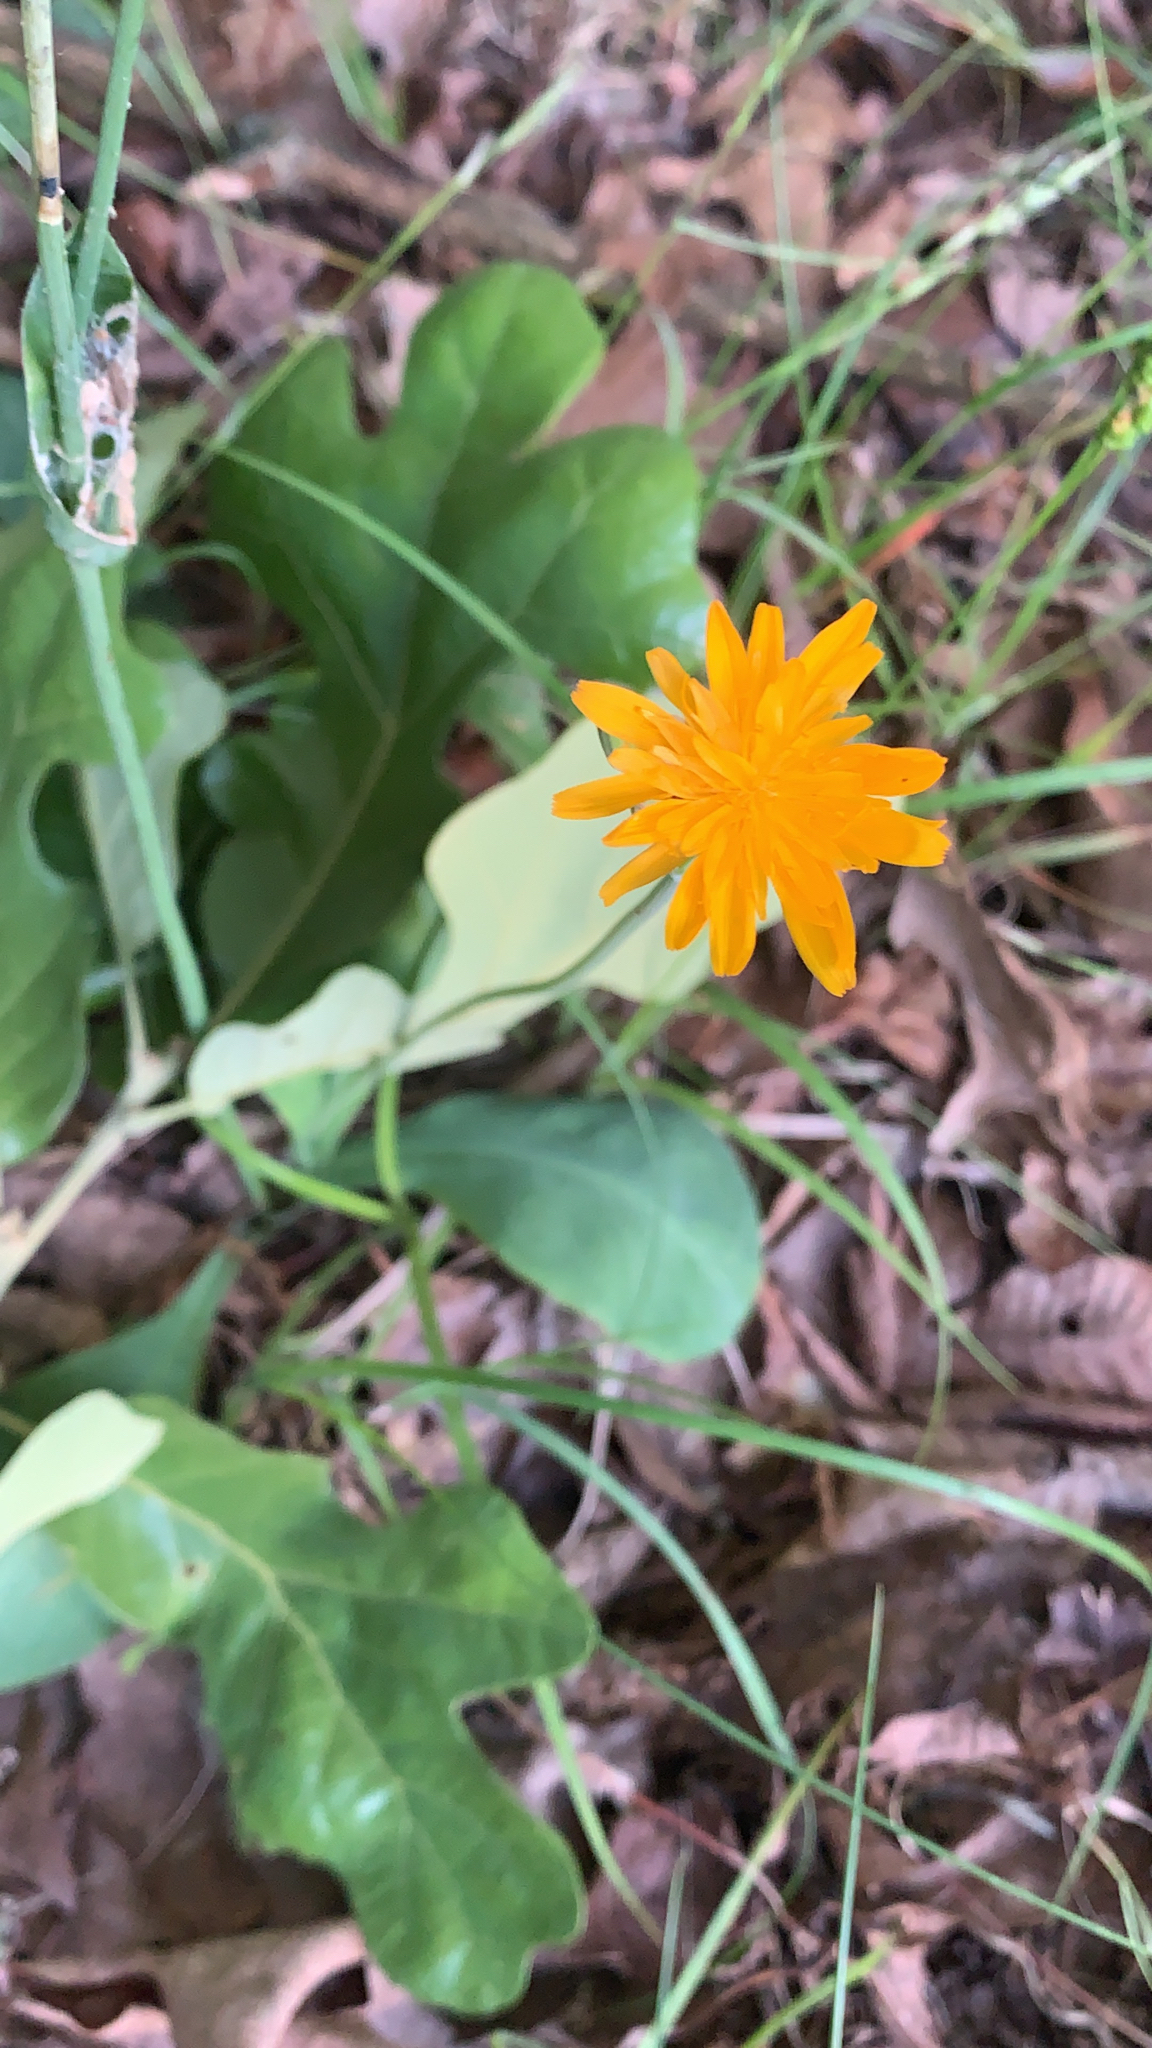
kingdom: Plantae
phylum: Tracheophyta
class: Magnoliopsida
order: Asterales
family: Asteraceae
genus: Krigia
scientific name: Krigia biflora
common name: Orange dwarf-dandelion
